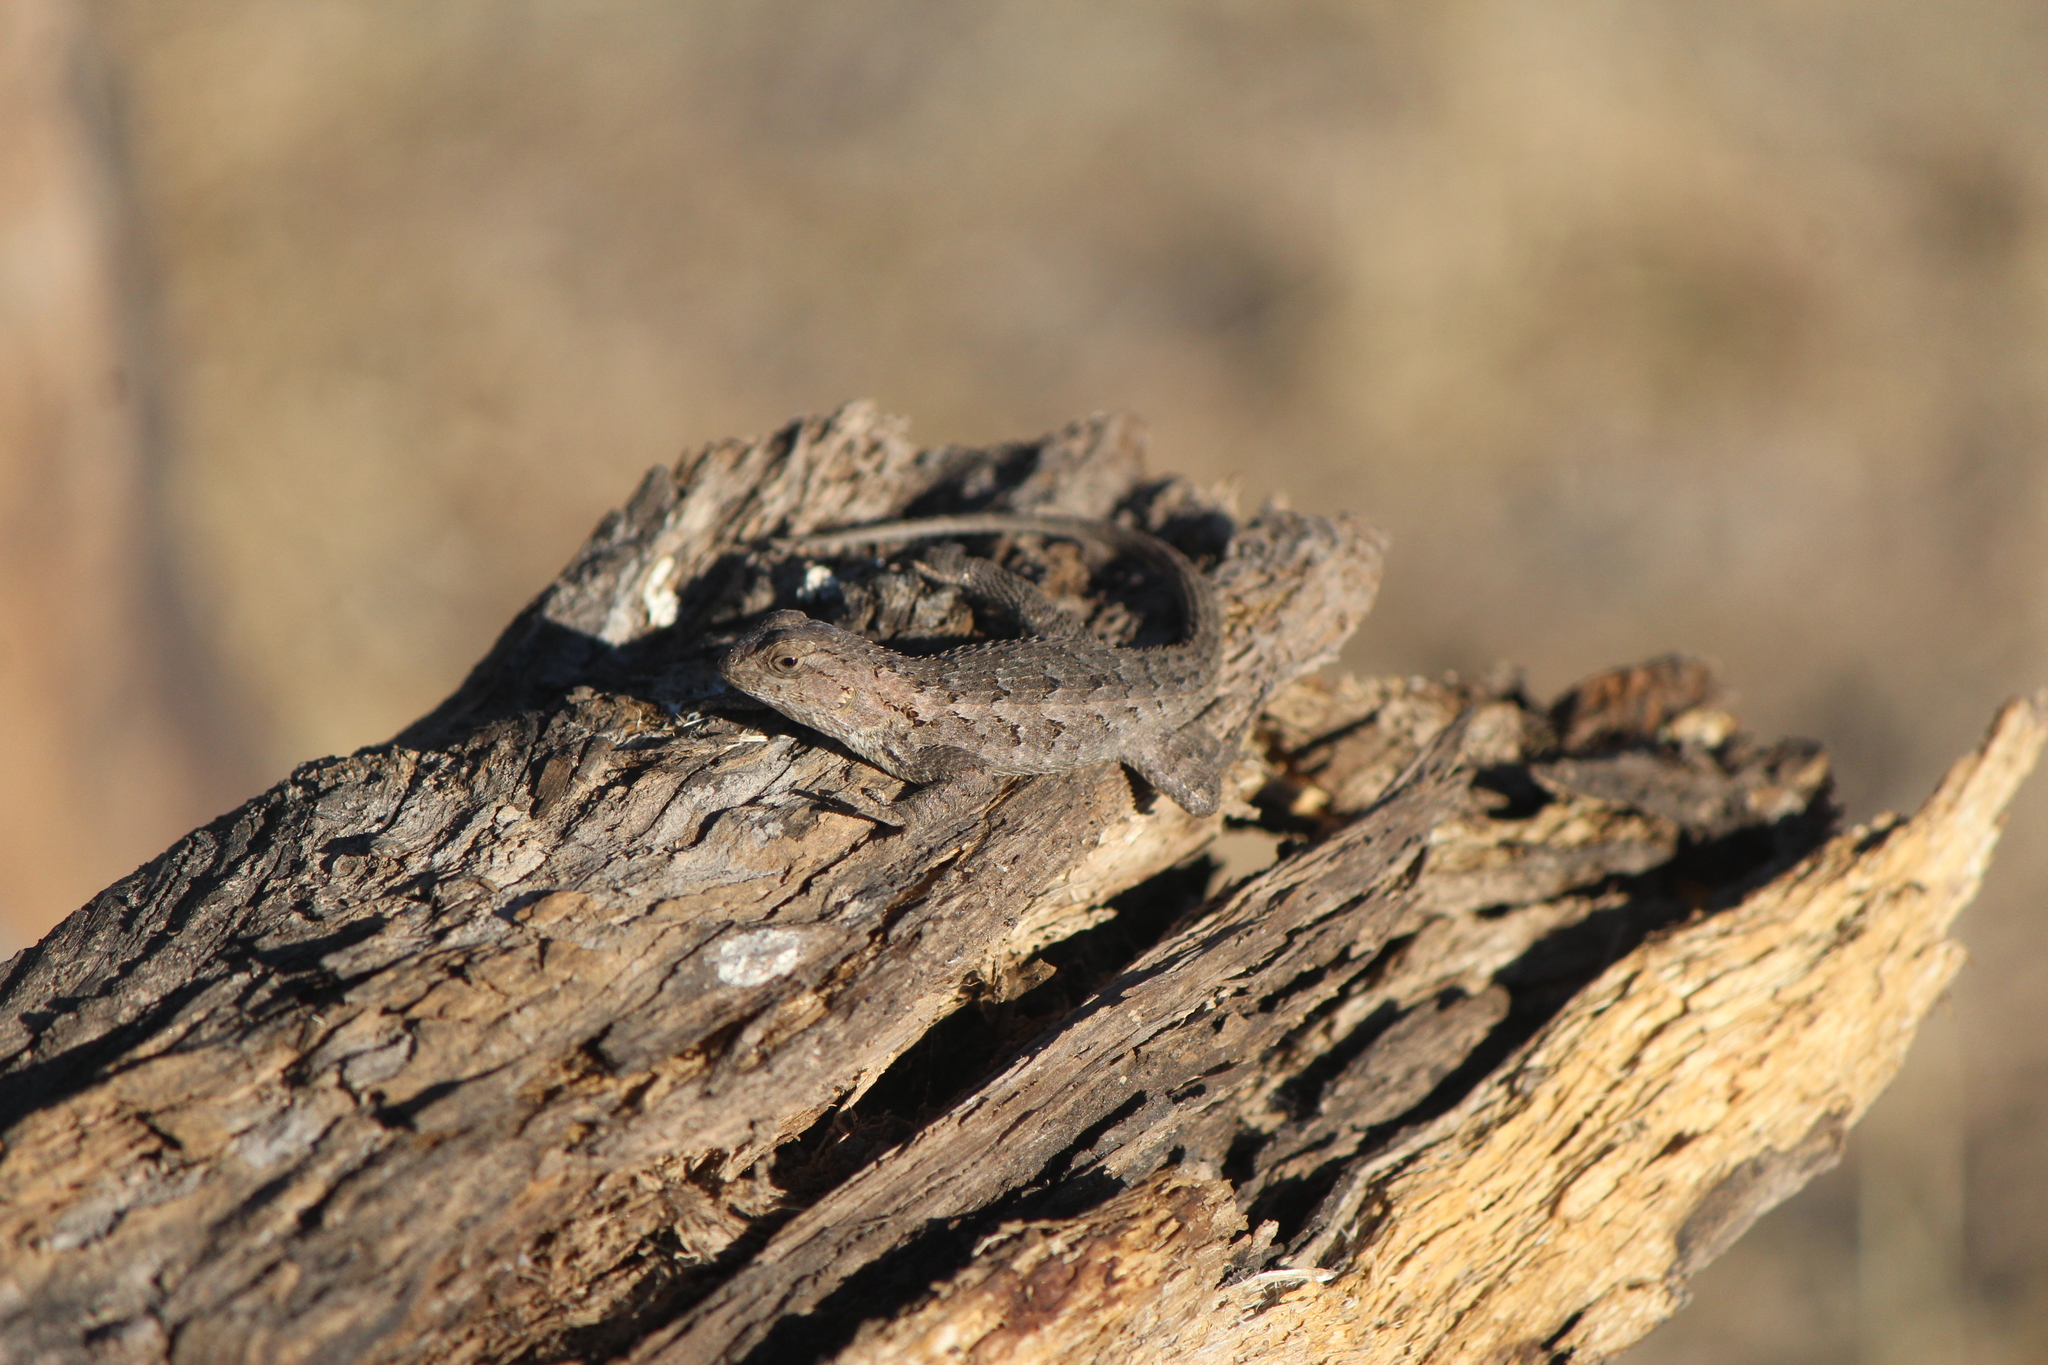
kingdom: Animalia
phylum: Chordata
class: Squamata
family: Phrynosomatidae
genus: Sceloporus
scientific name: Sceloporus spinosus
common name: Blue-spotted spiny lizard [caeruleopunctatus]
